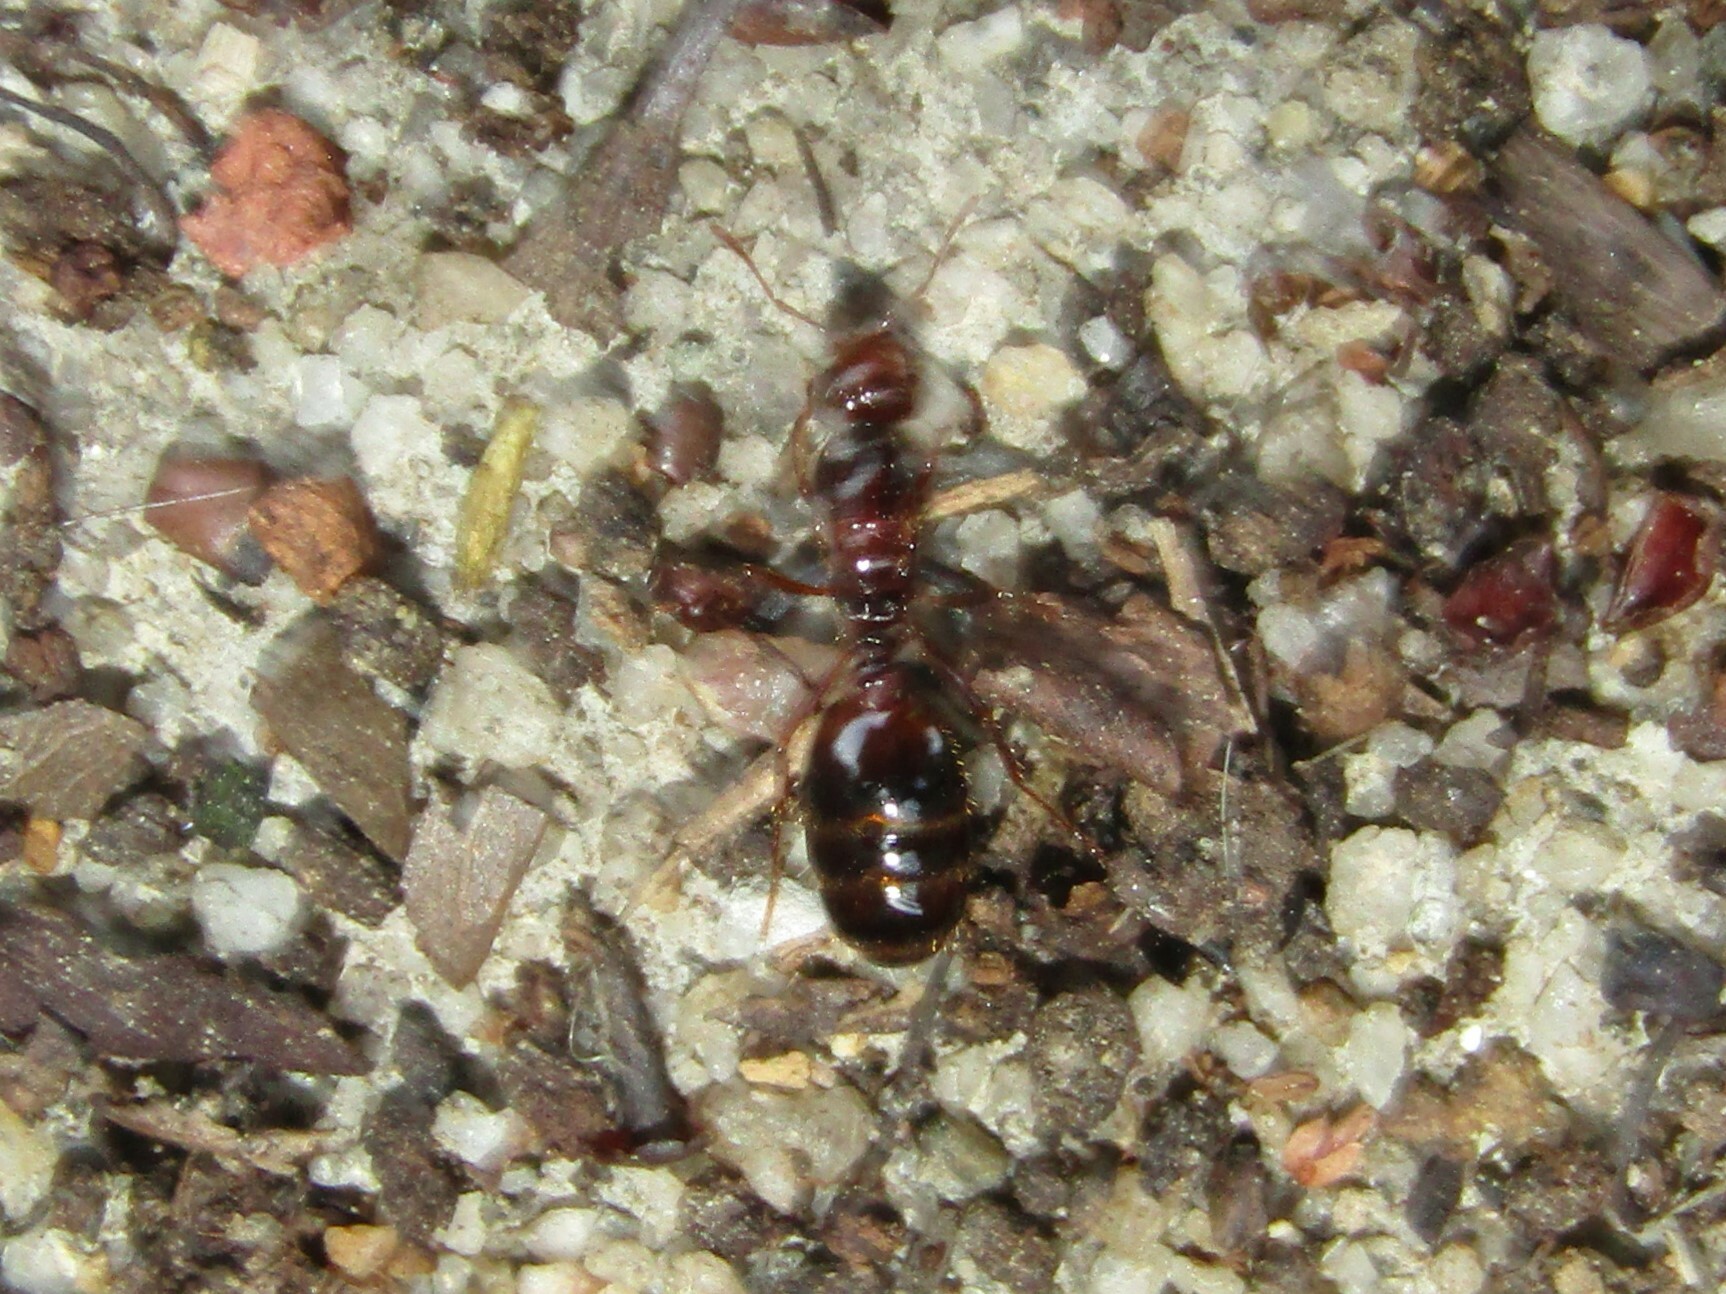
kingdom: Animalia
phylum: Arthropoda
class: Insecta
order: Hymenoptera
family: Formicidae
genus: Solenopsis
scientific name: Solenopsis invicta
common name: Red imported fire ant
